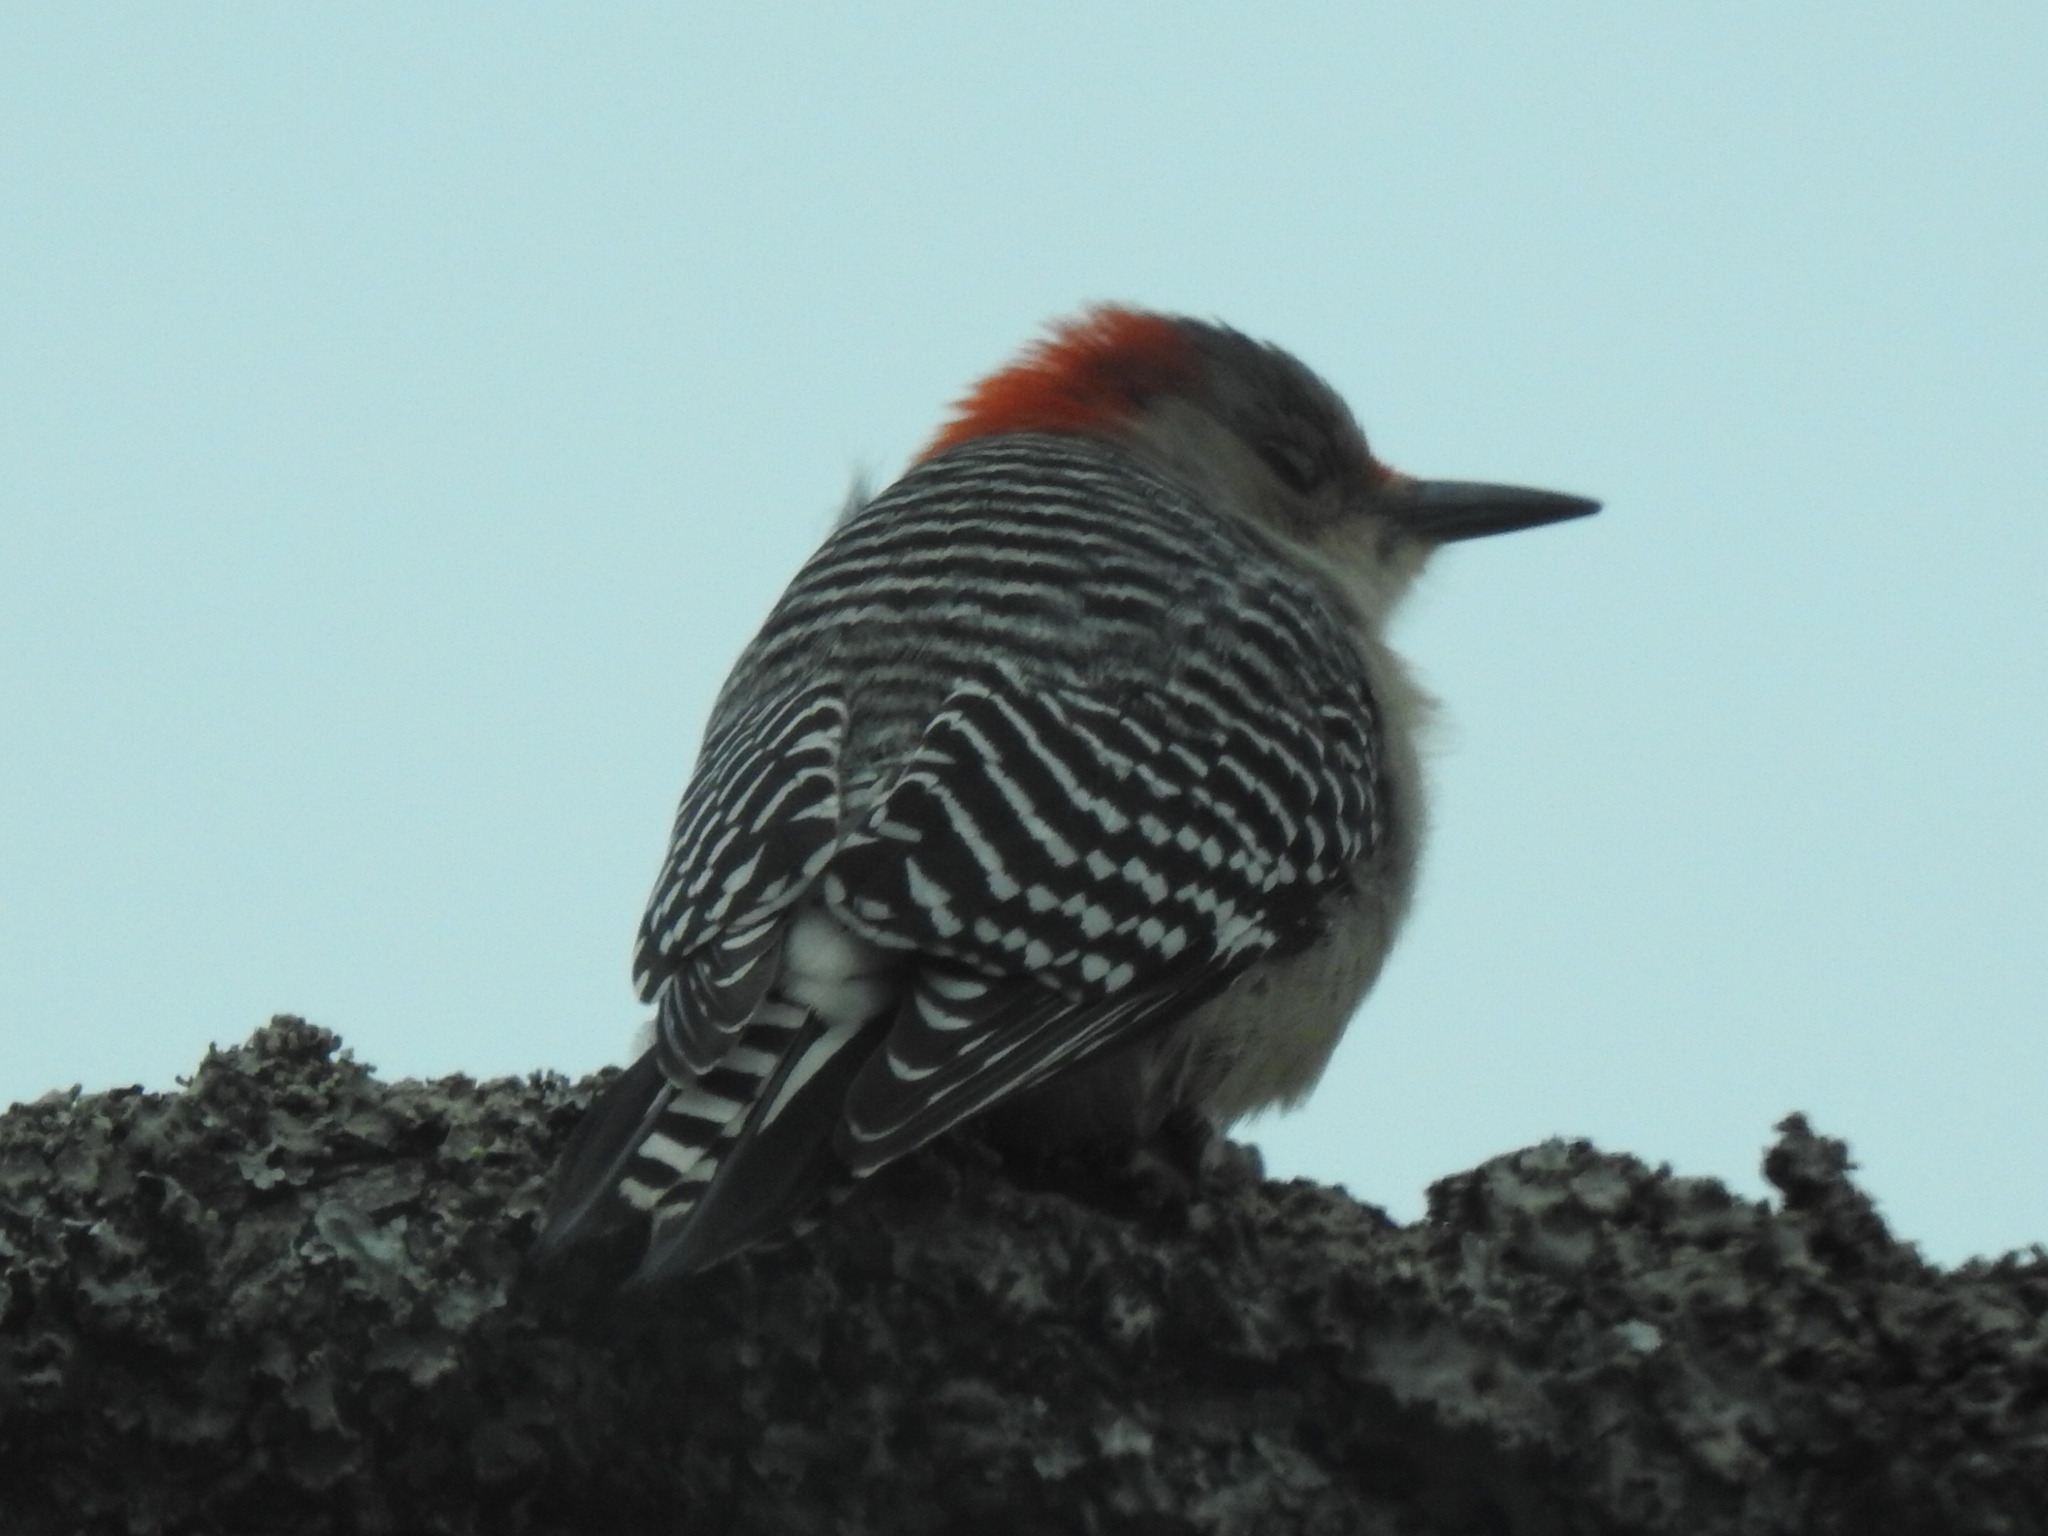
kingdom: Animalia
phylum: Chordata
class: Aves
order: Piciformes
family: Picidae
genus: Melanerpes
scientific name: Melanerpes carolinus
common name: Red-bellied woodpecker
